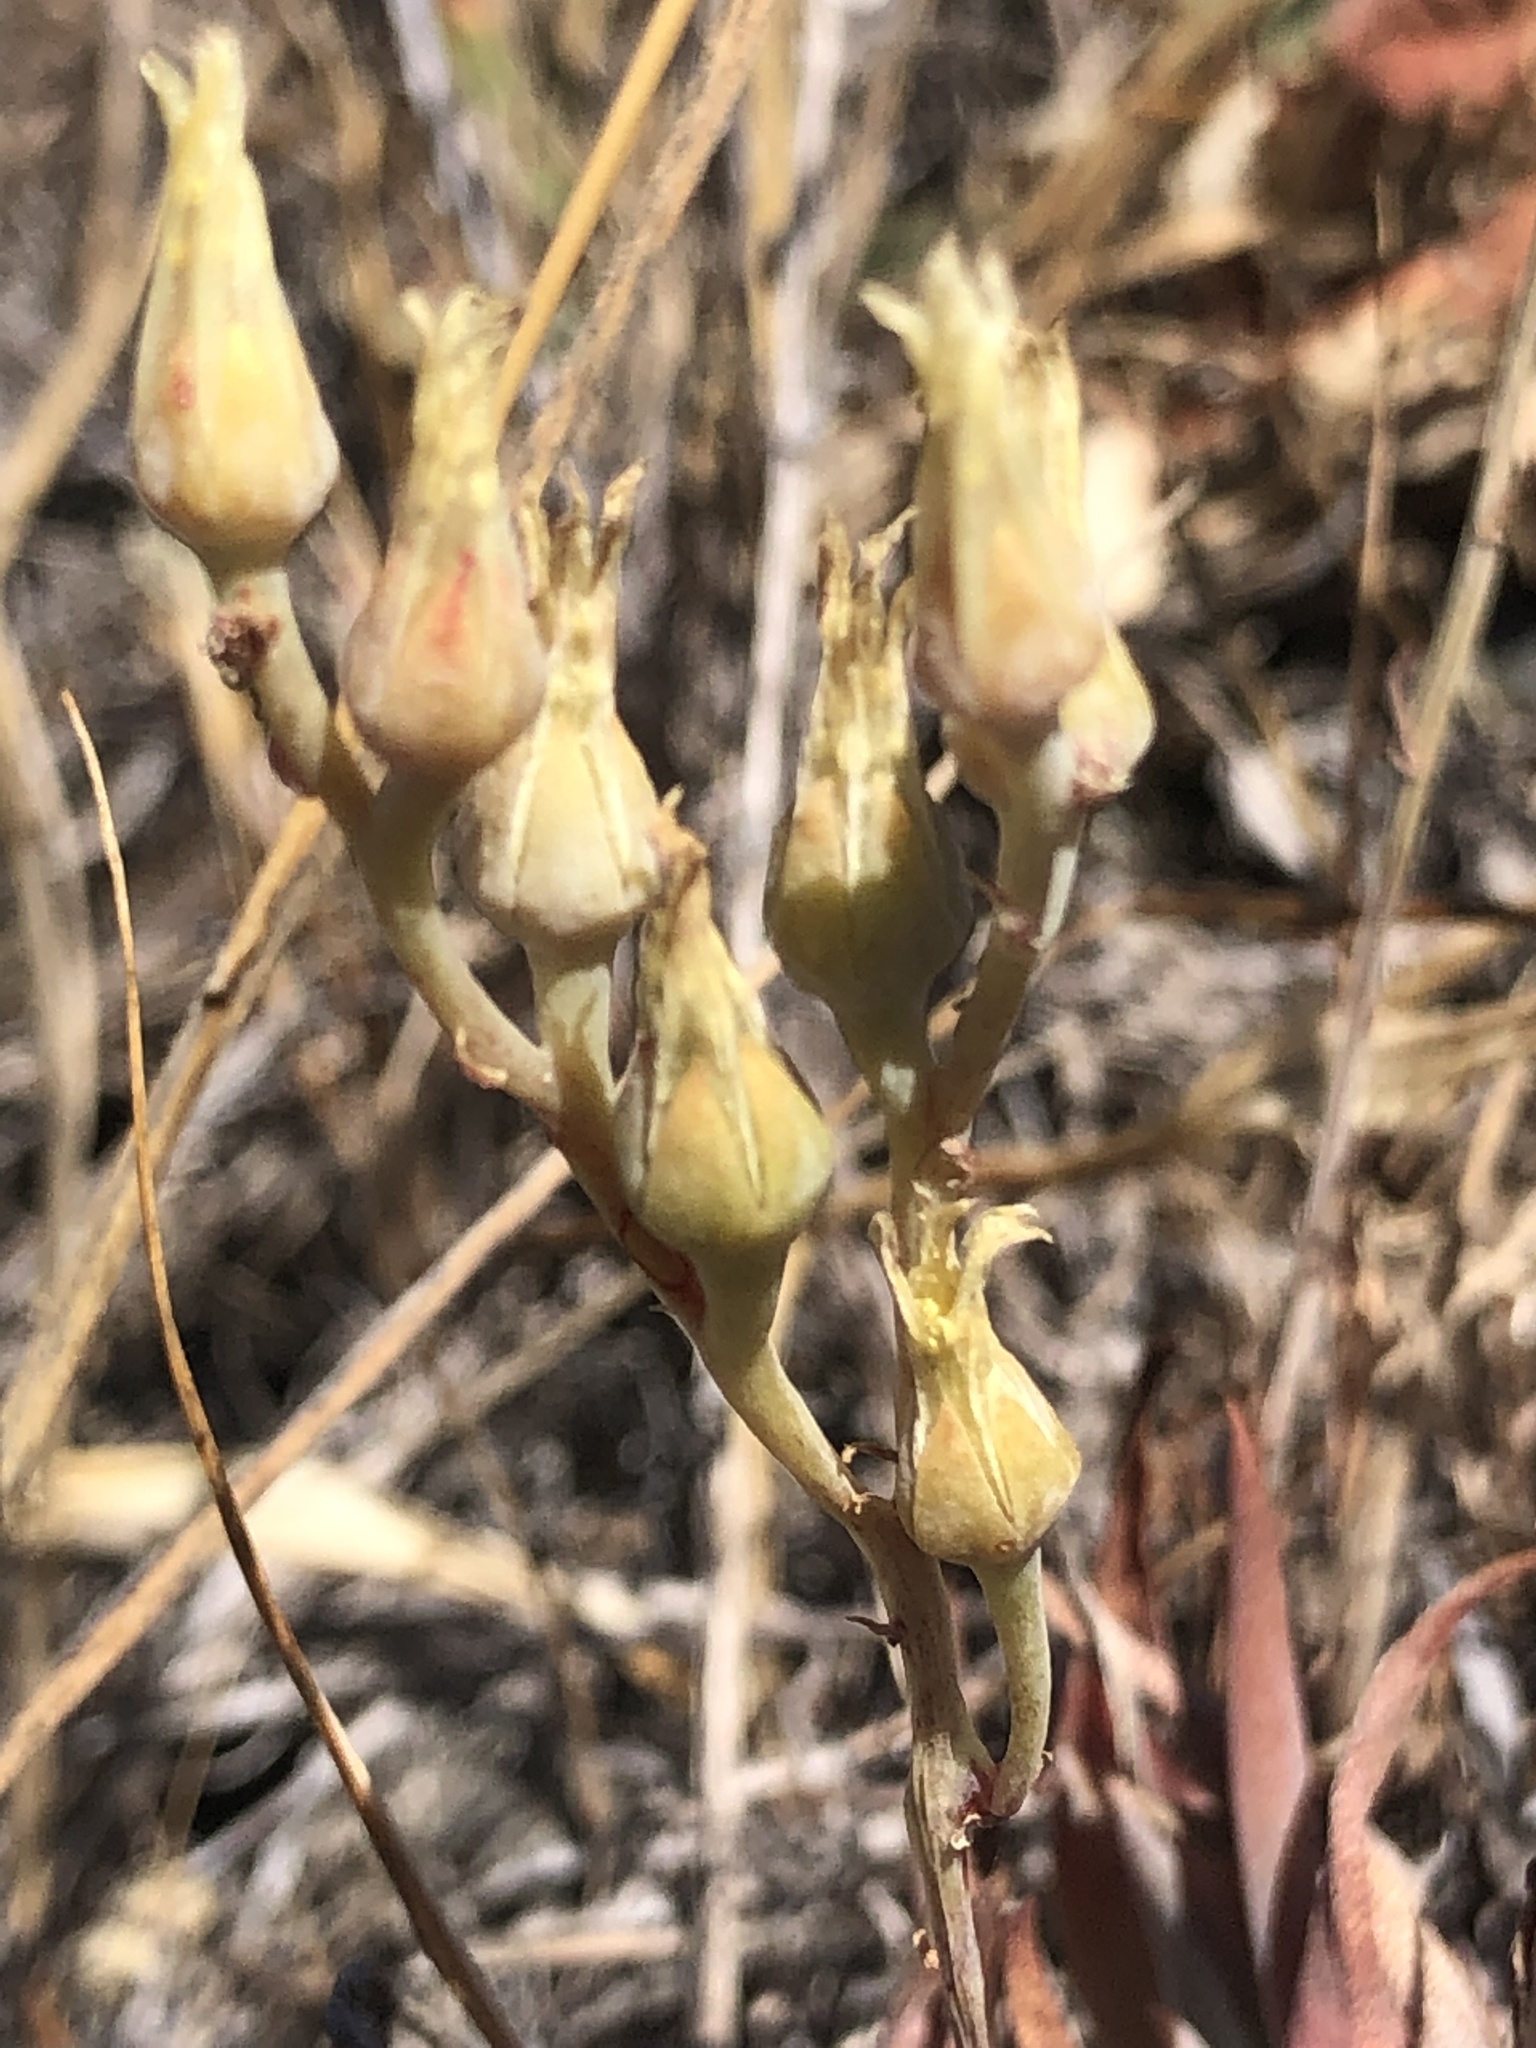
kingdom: Plantae
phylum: Tracheophyta
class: Magnoliopsida
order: Saxifragales
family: Crassulaceae
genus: Dudleya
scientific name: Dudleya abramsii
